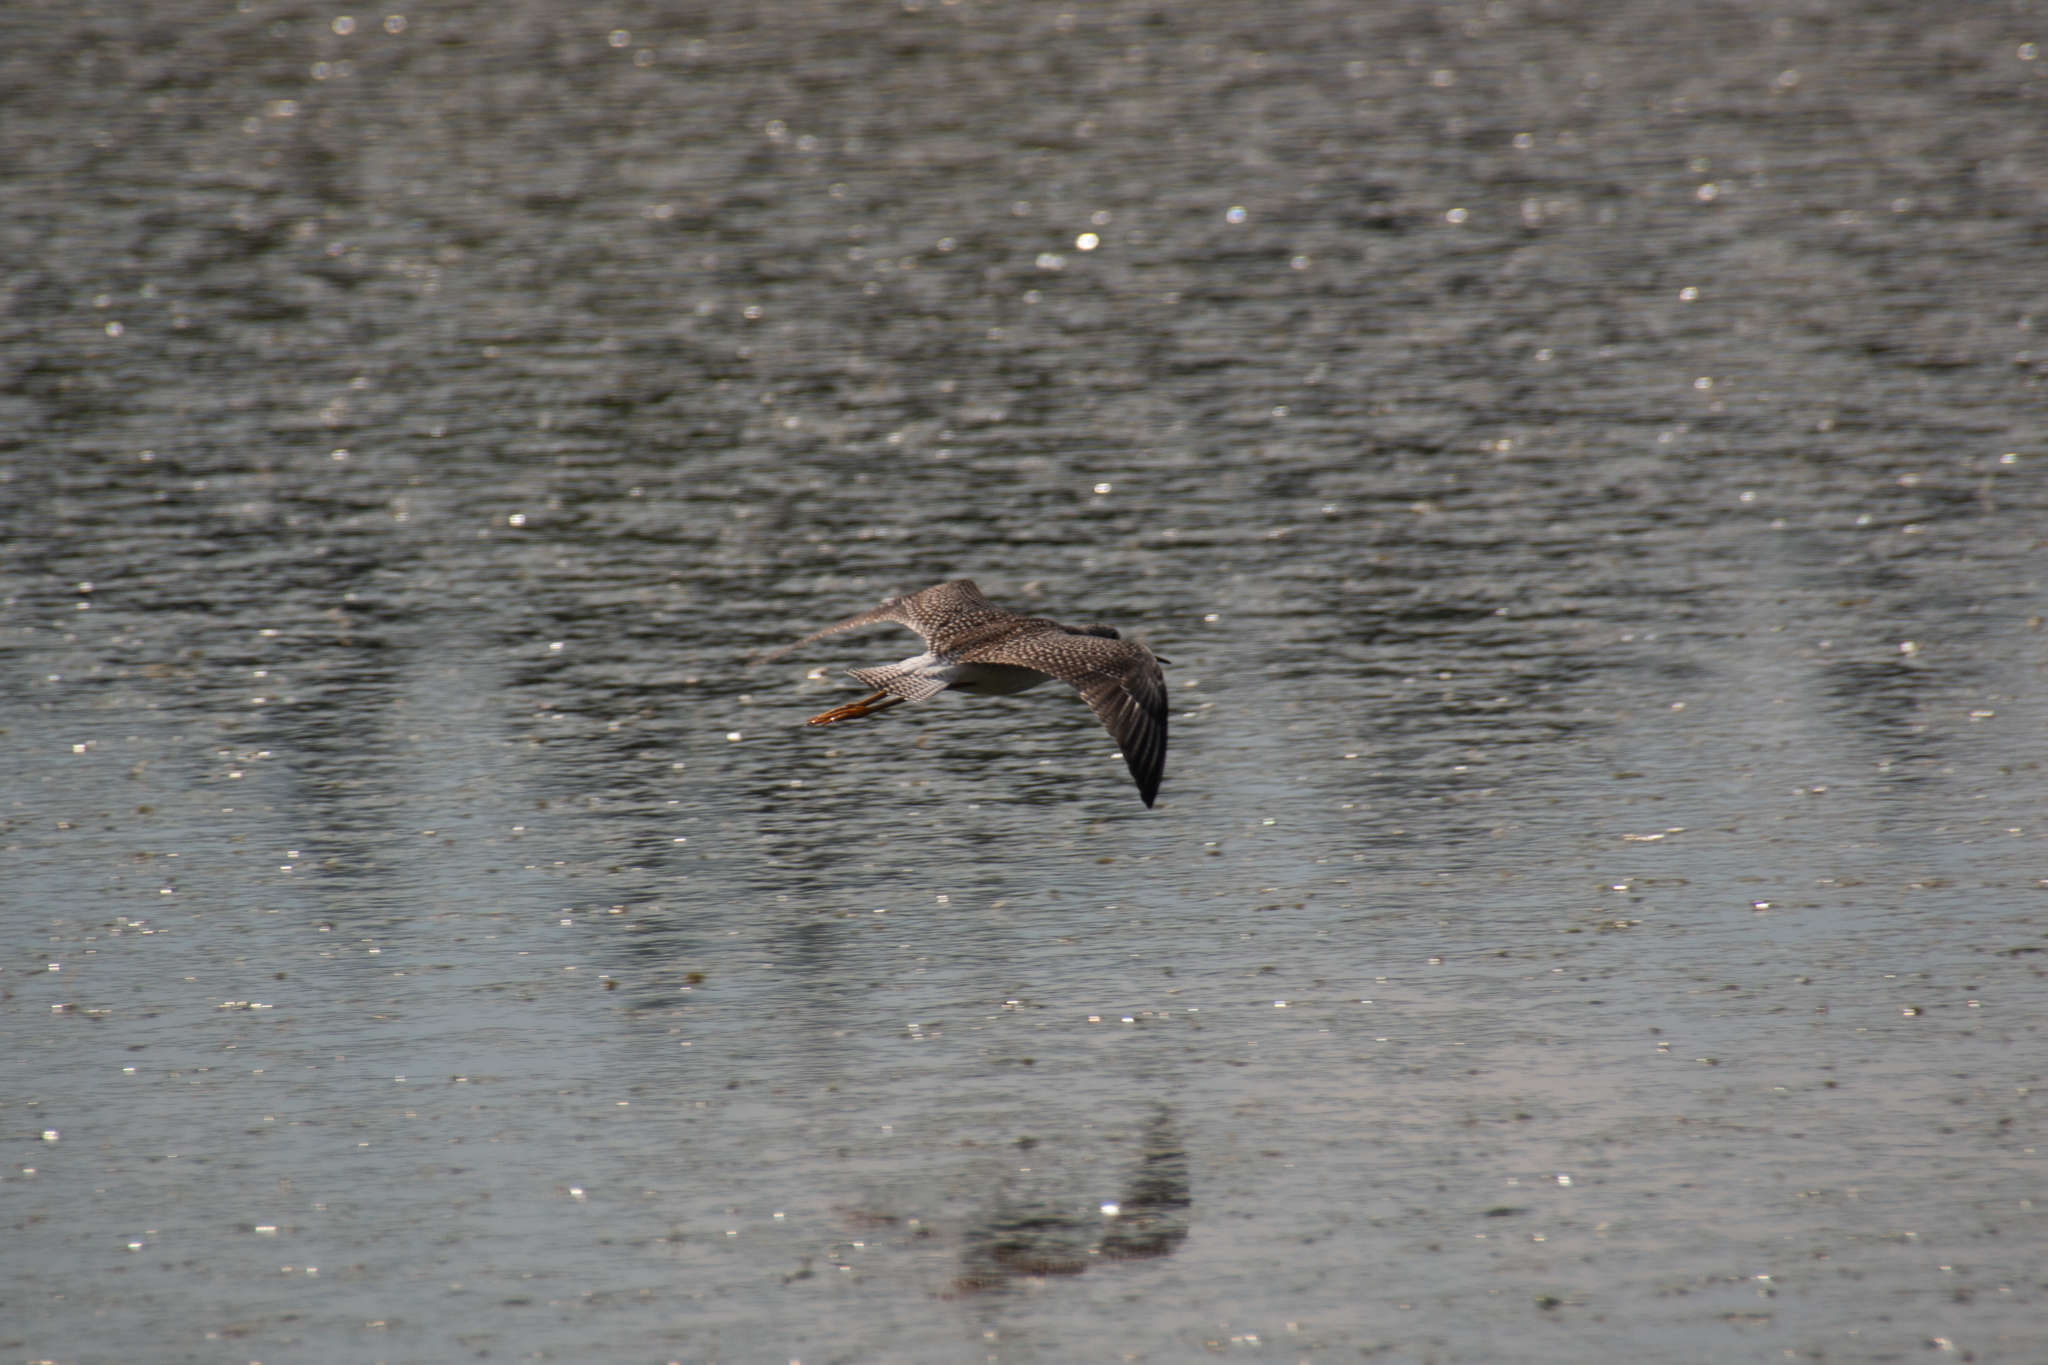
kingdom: Animalia
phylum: Chordata
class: Aves
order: Charadriiformes
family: Scolopacidae
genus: Tringa
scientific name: Tringa melanoleuca
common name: Greater yellowlegs
